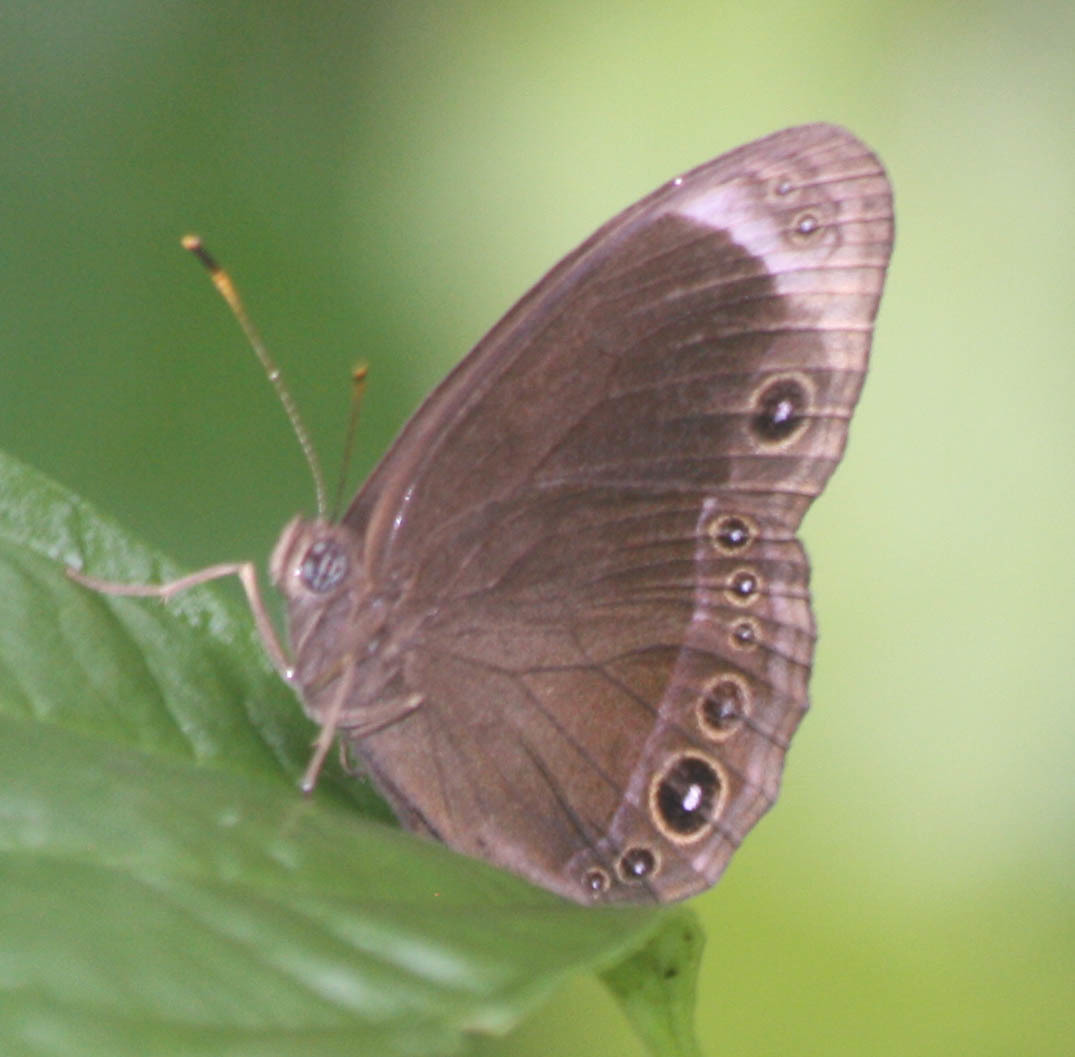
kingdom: Animalia
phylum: Arthropoda
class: Insecta
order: Lepidoptera
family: Nymphalidae
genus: Mycalesis
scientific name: Mycalesis anaxias
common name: White-bar bushbrown
